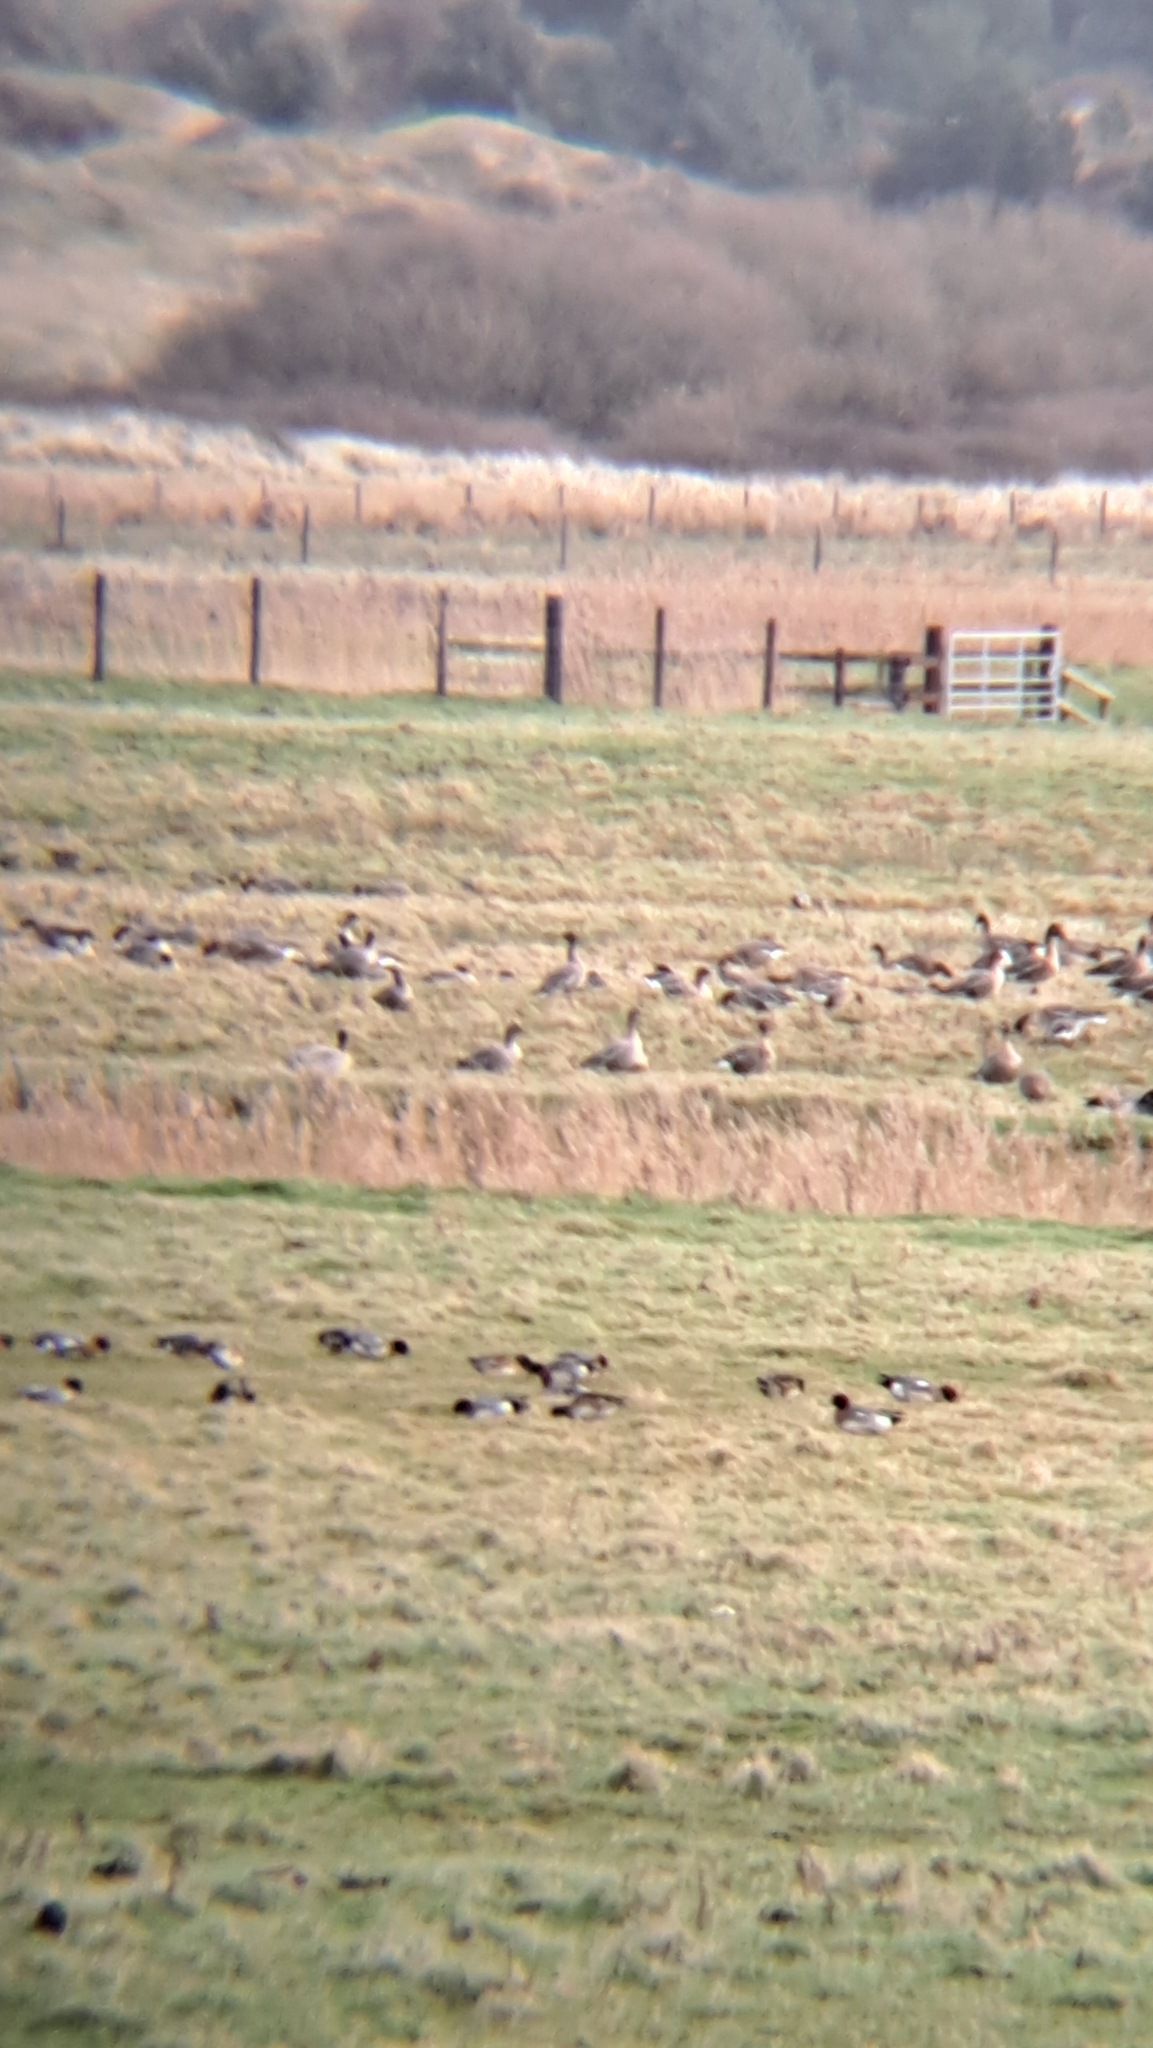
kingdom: Animalia
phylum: Chordata
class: Aves
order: Anseriformes
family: Anatidae
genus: Anser
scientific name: Anser brachyrhynchus
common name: Pink-footed goose
